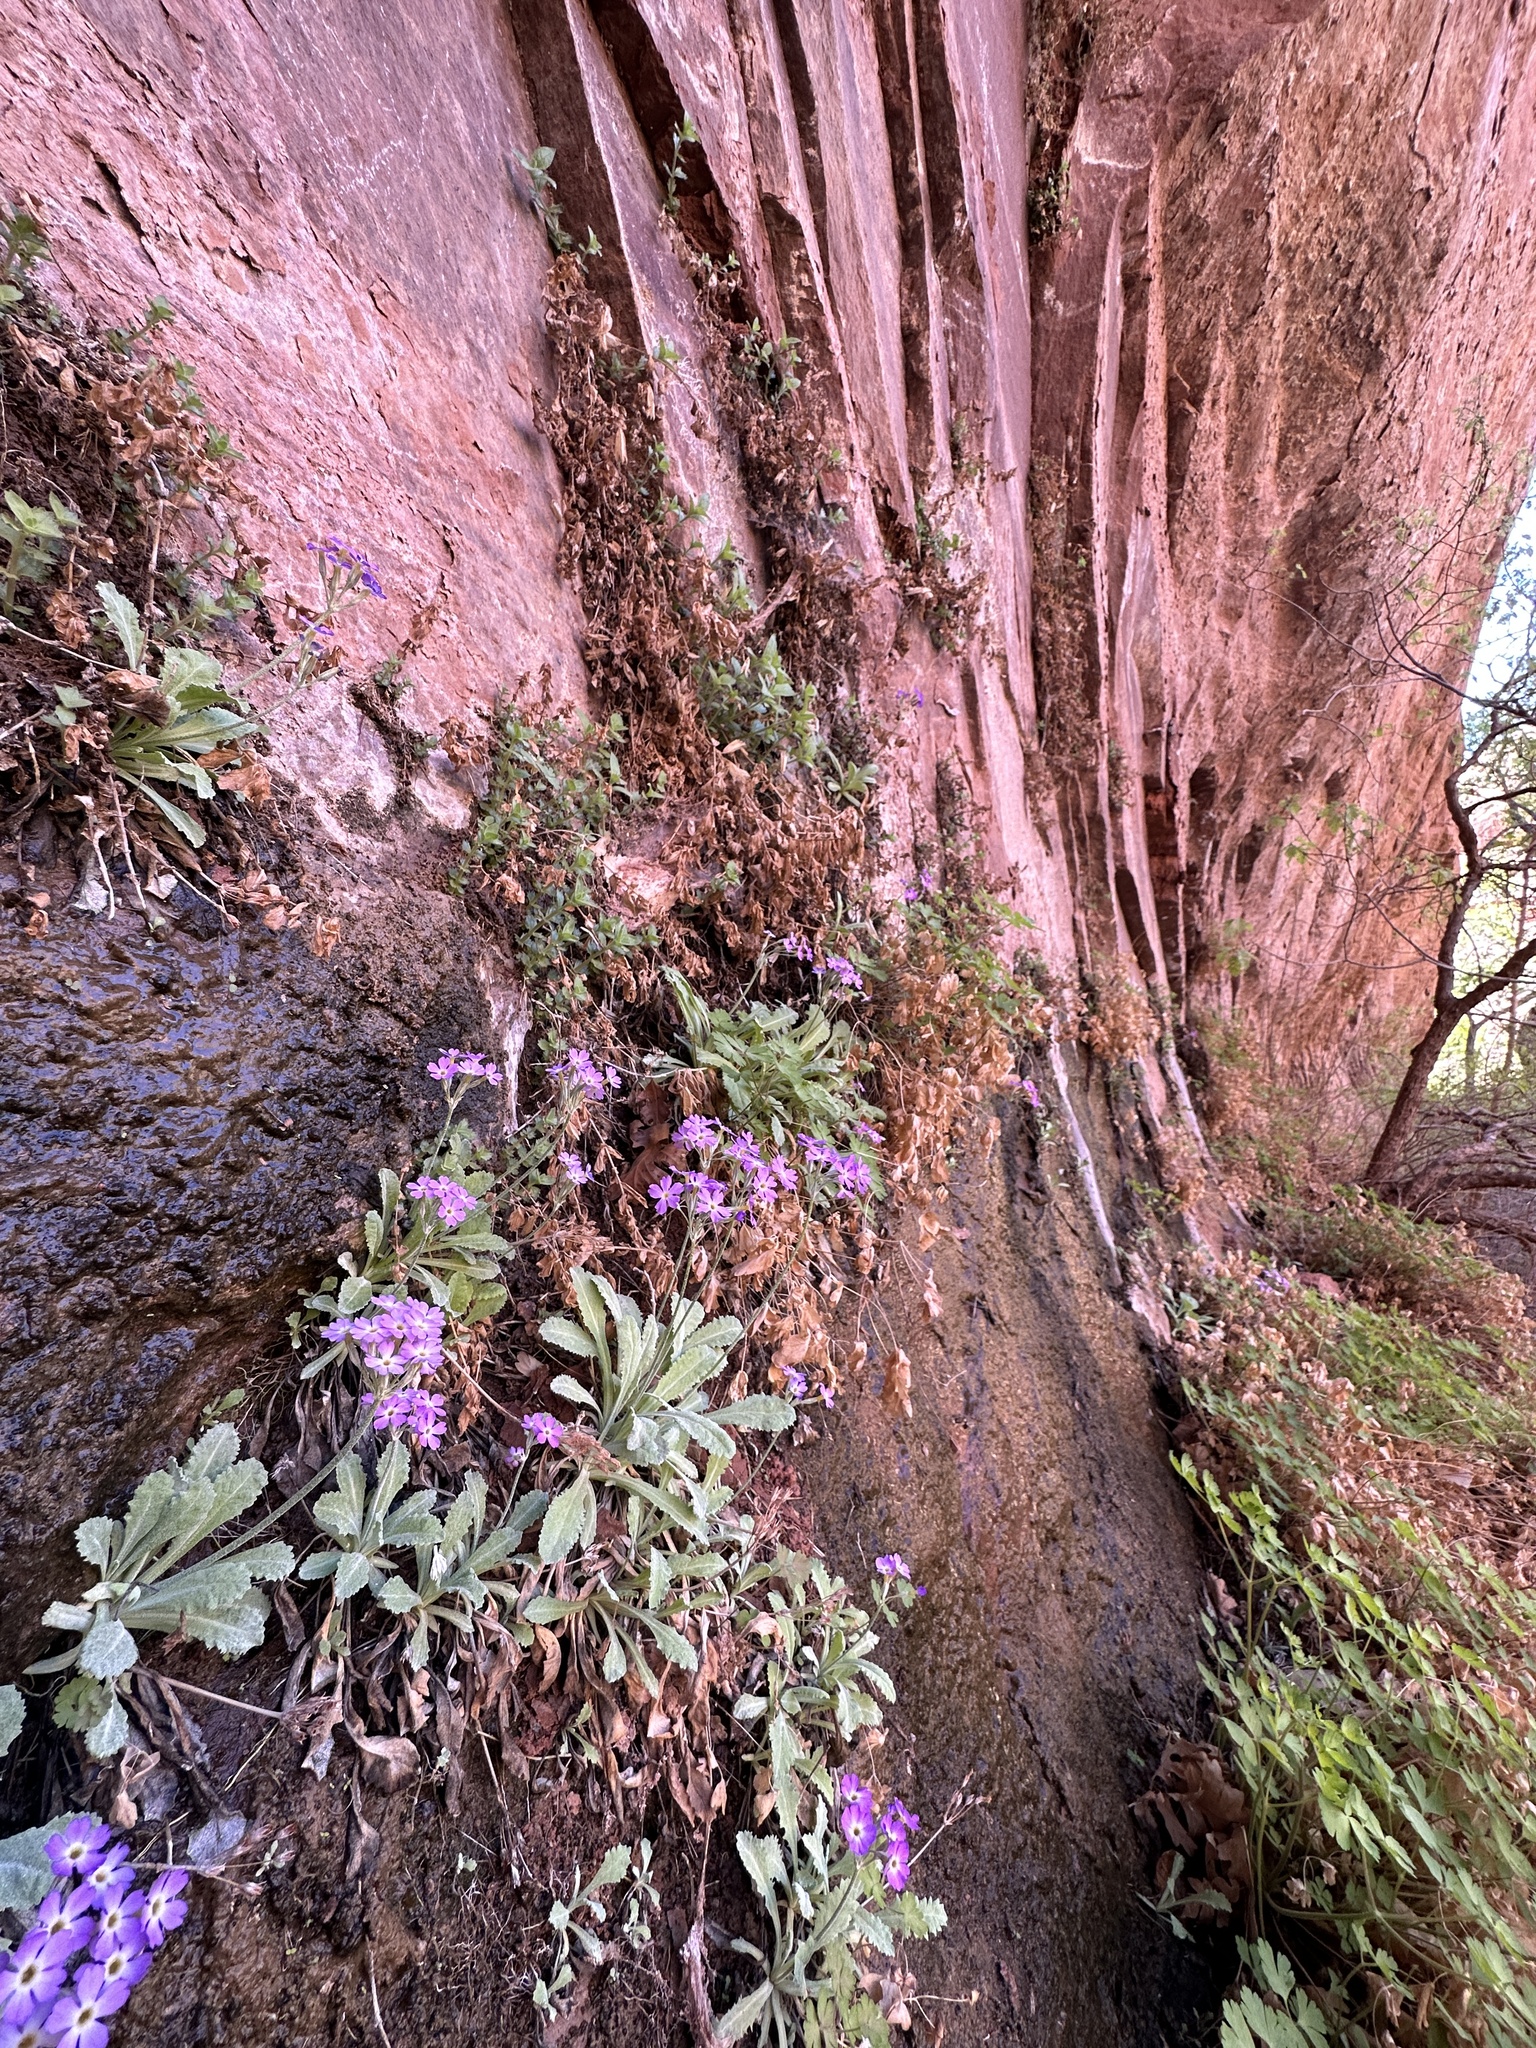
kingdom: Plantae
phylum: Tracheophyta
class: Magnoliopsida
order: Ericales
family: Primulaceae
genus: Primula
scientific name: Primula specuicola
